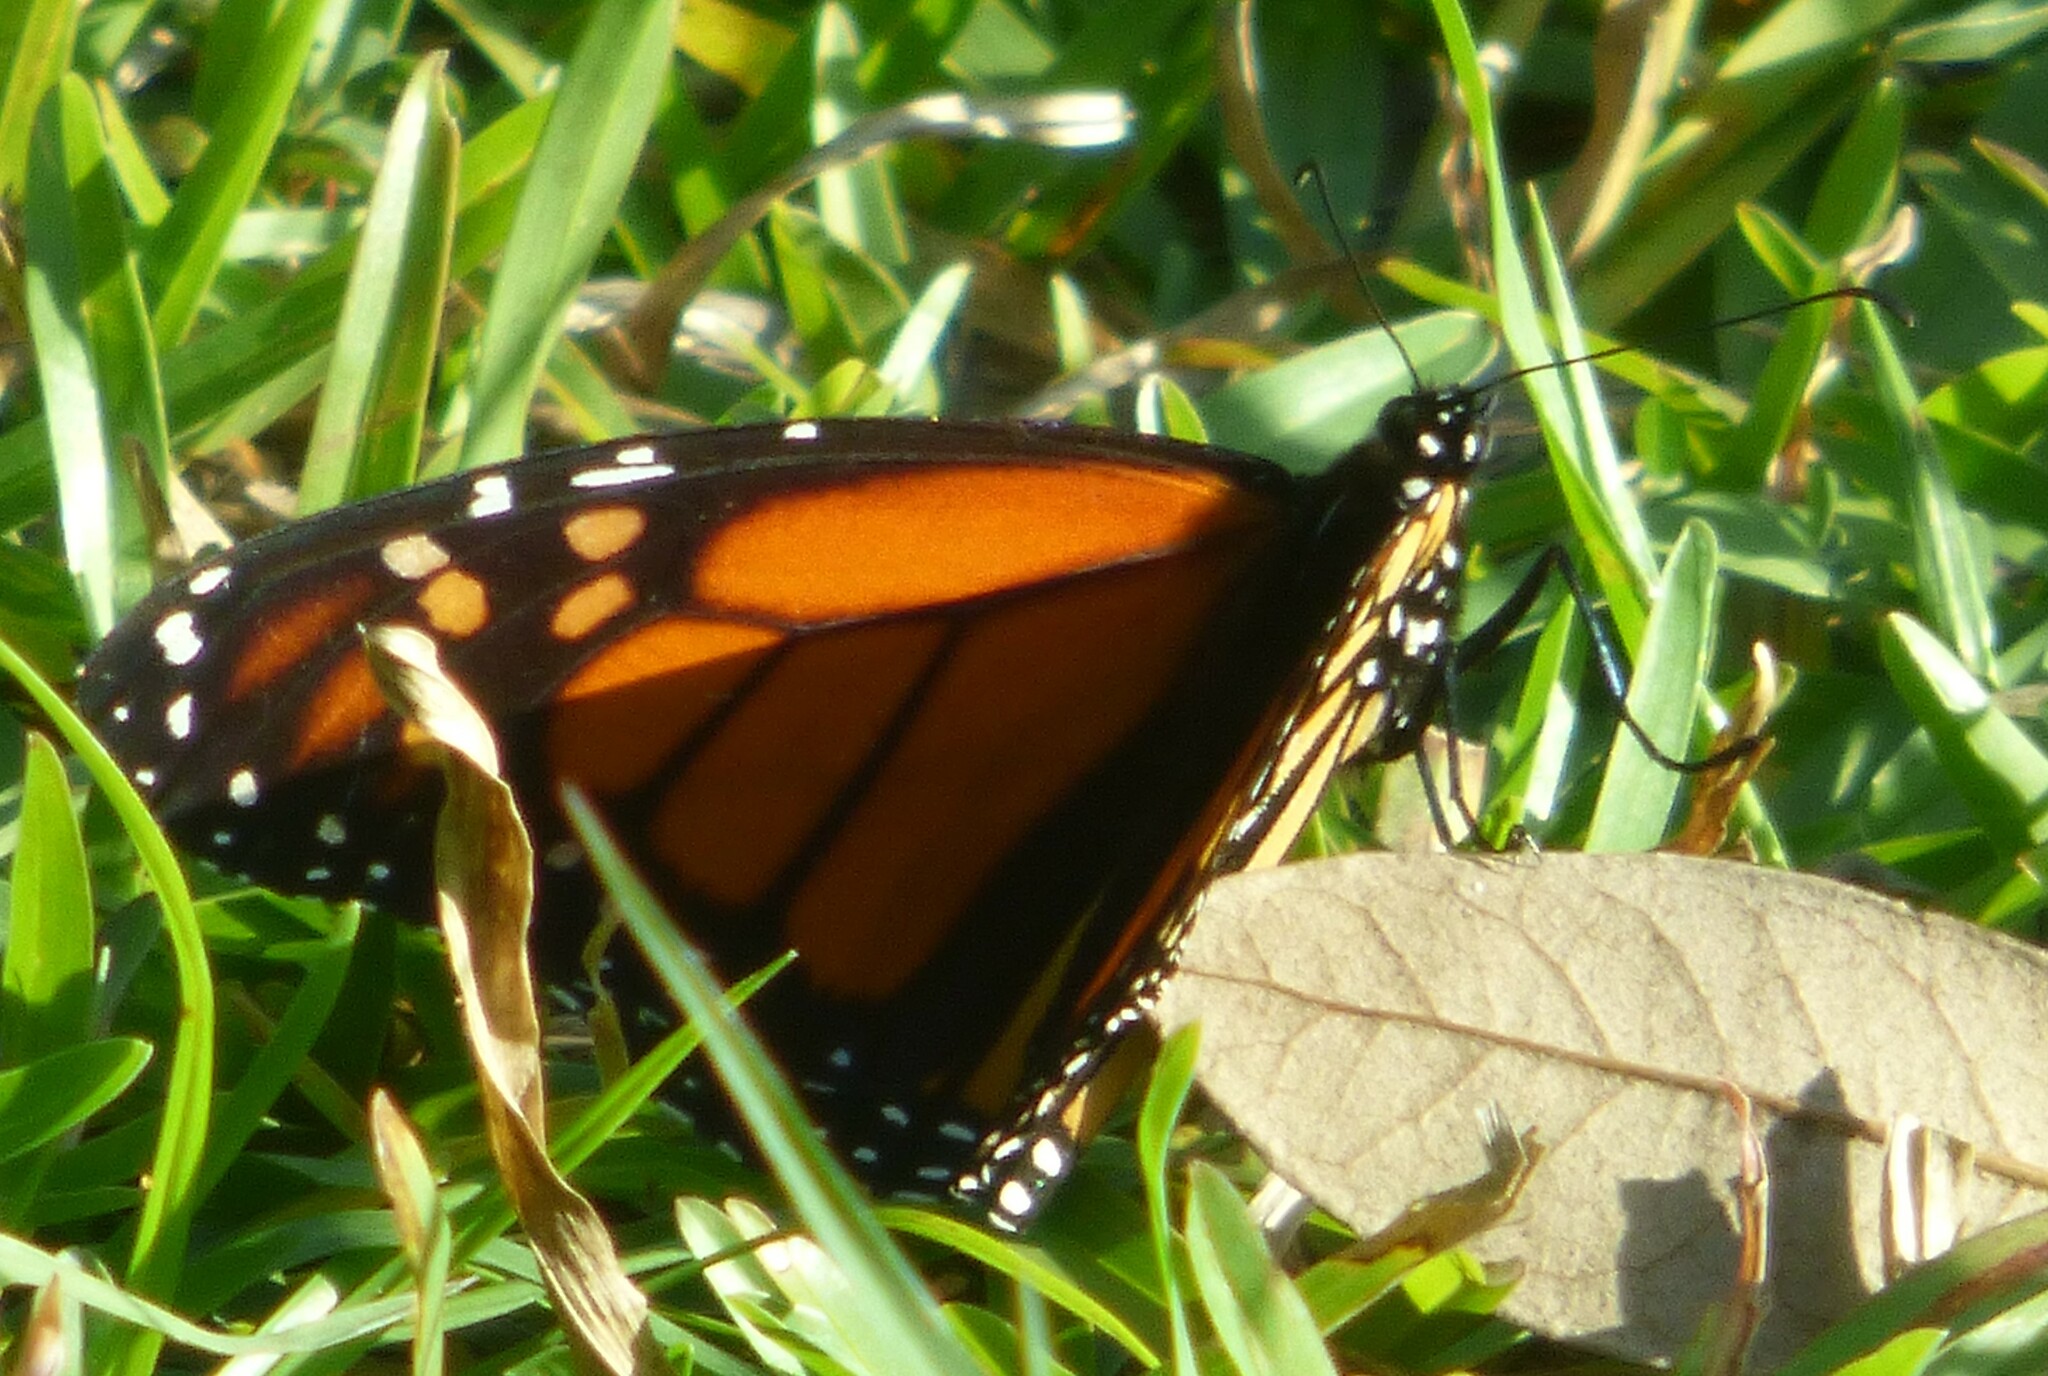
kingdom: Animalia
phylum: Arthropoda
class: Insecta
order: Lepidoptera
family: Nymphalidae
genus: Danaus
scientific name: Danaus plexippus
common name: Monarch
